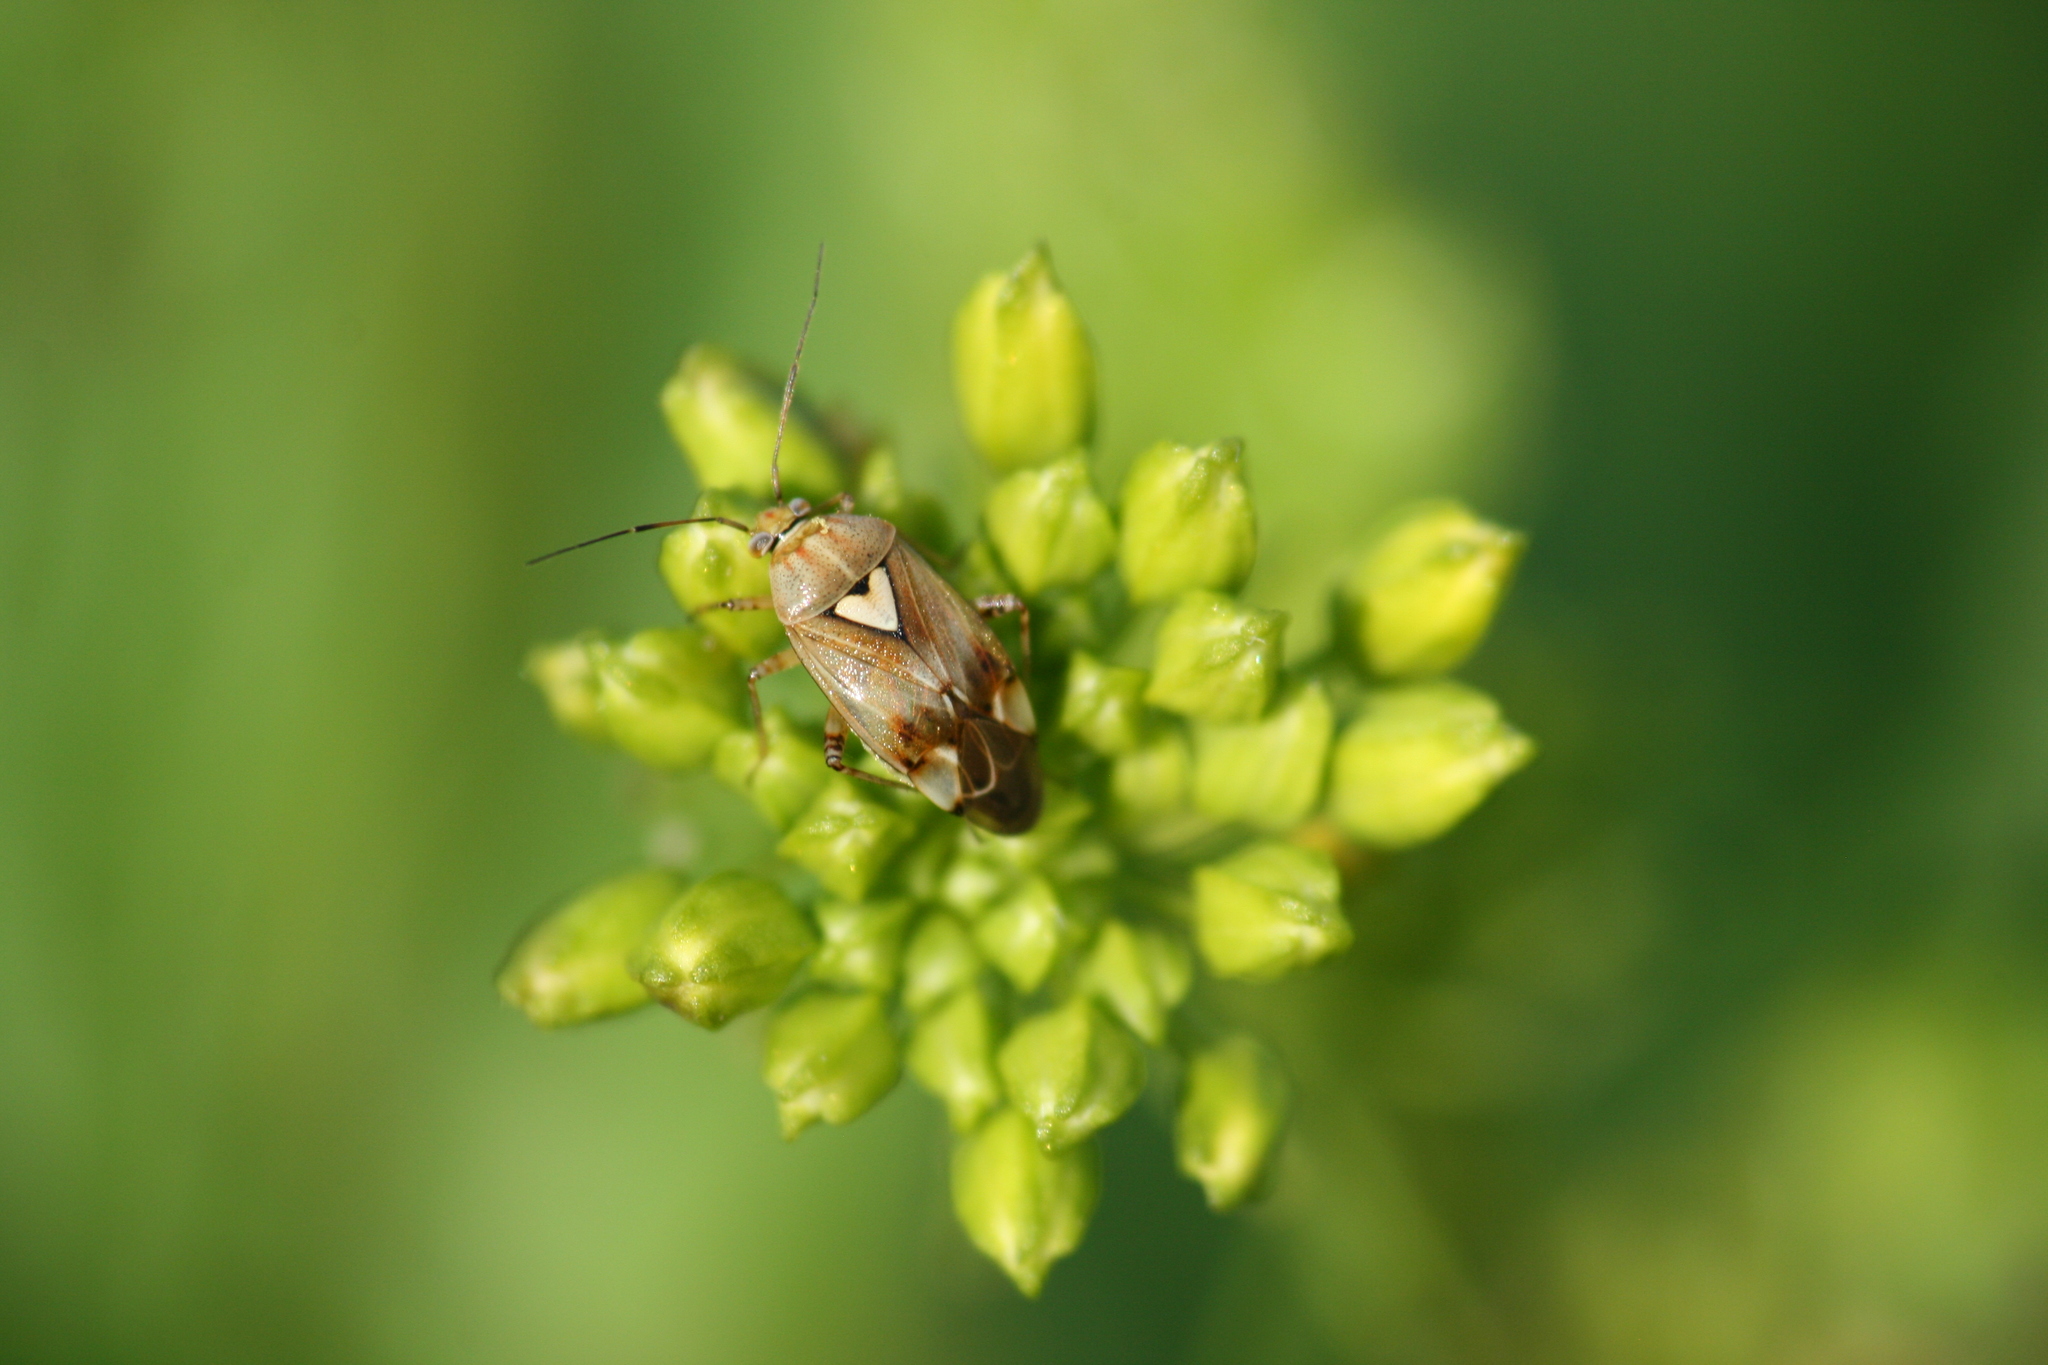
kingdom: Animalia
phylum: Arthropoda
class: Insecta
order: Hemiptera
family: Miridae
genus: Lygus
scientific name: Lygus pratensis
